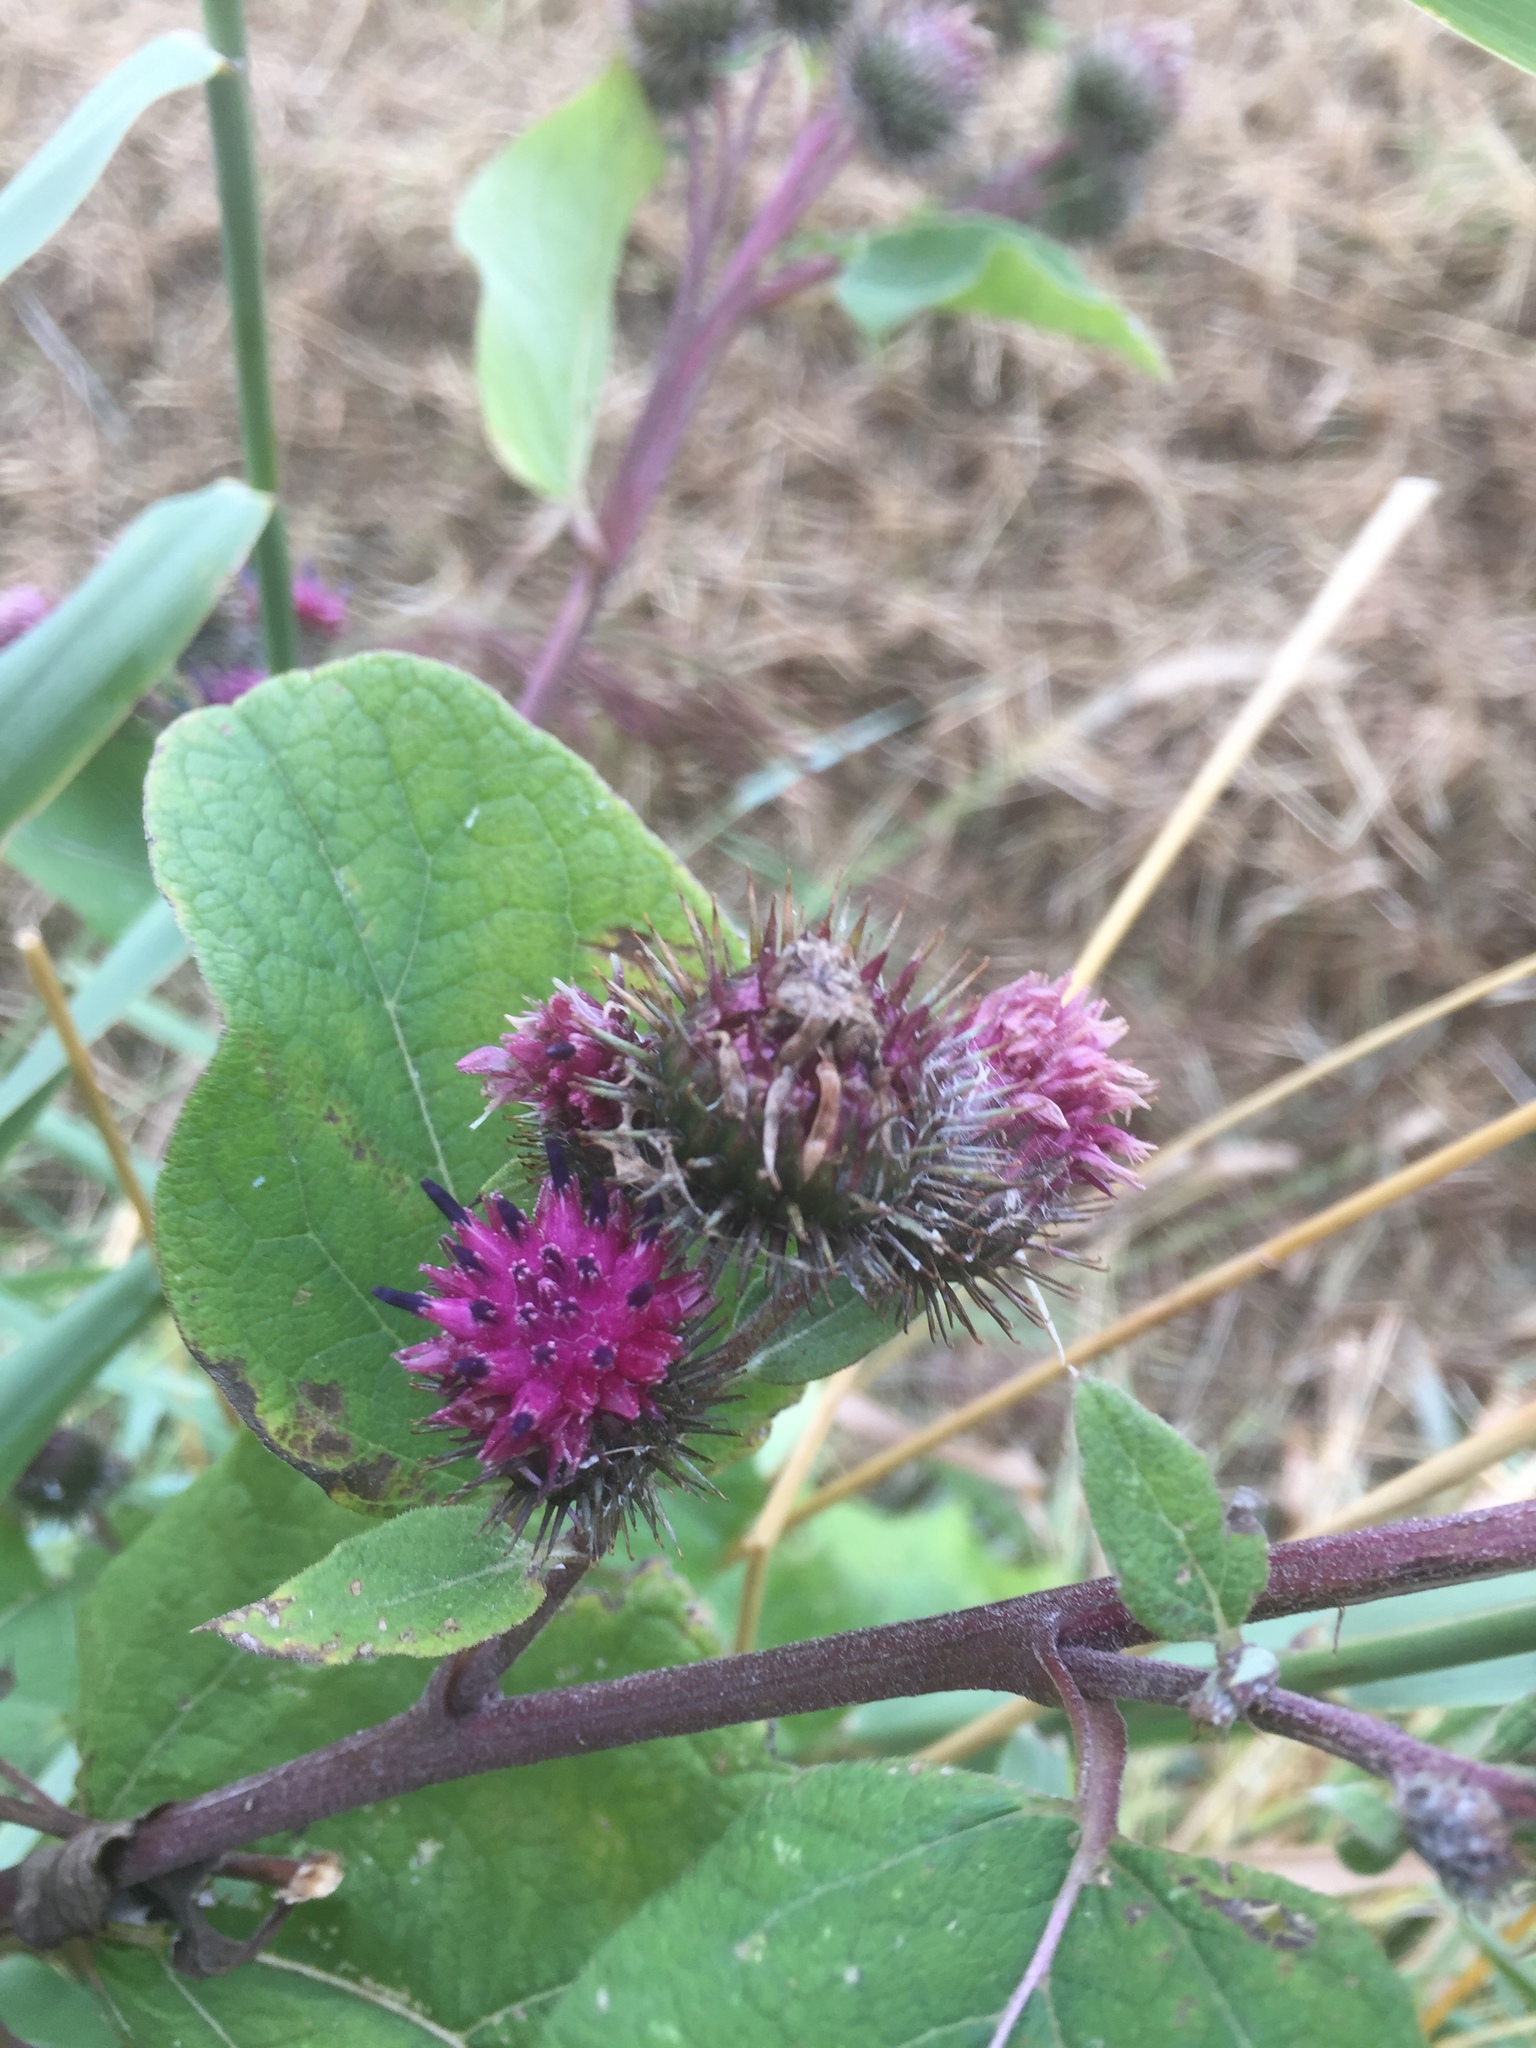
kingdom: Plantae
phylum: Tracheophyta
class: Magnoliopsida
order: Asterales
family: Asteraceae
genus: Arctium
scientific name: Arctium minus
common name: Lesser burdock
